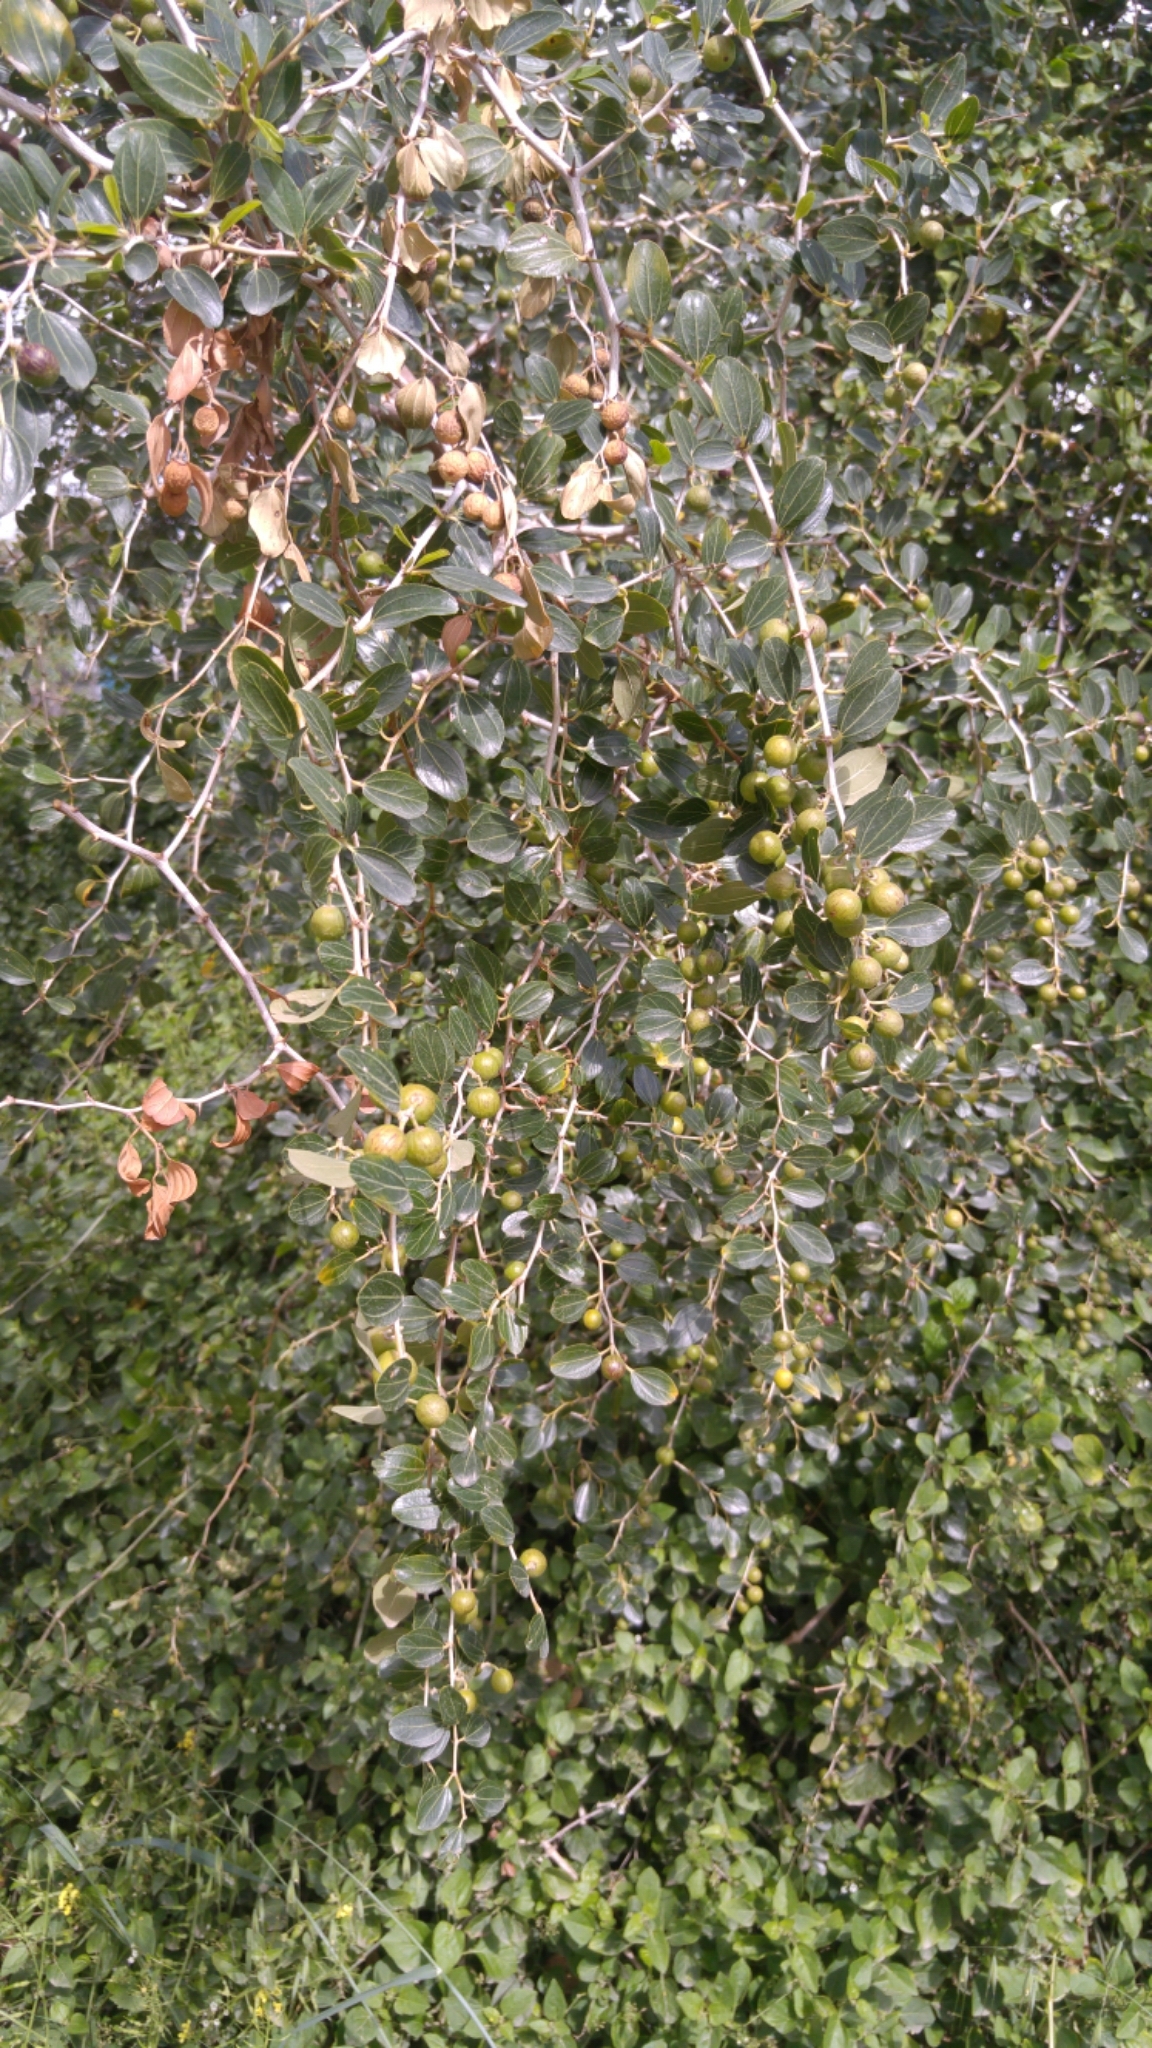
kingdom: Plantae
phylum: Tracheophyta
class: Magnoliopsida
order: Rosales
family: Rhamnaceae
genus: Ziziphus
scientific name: Ziziphus spina-christi
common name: Syrian christ-thorn
